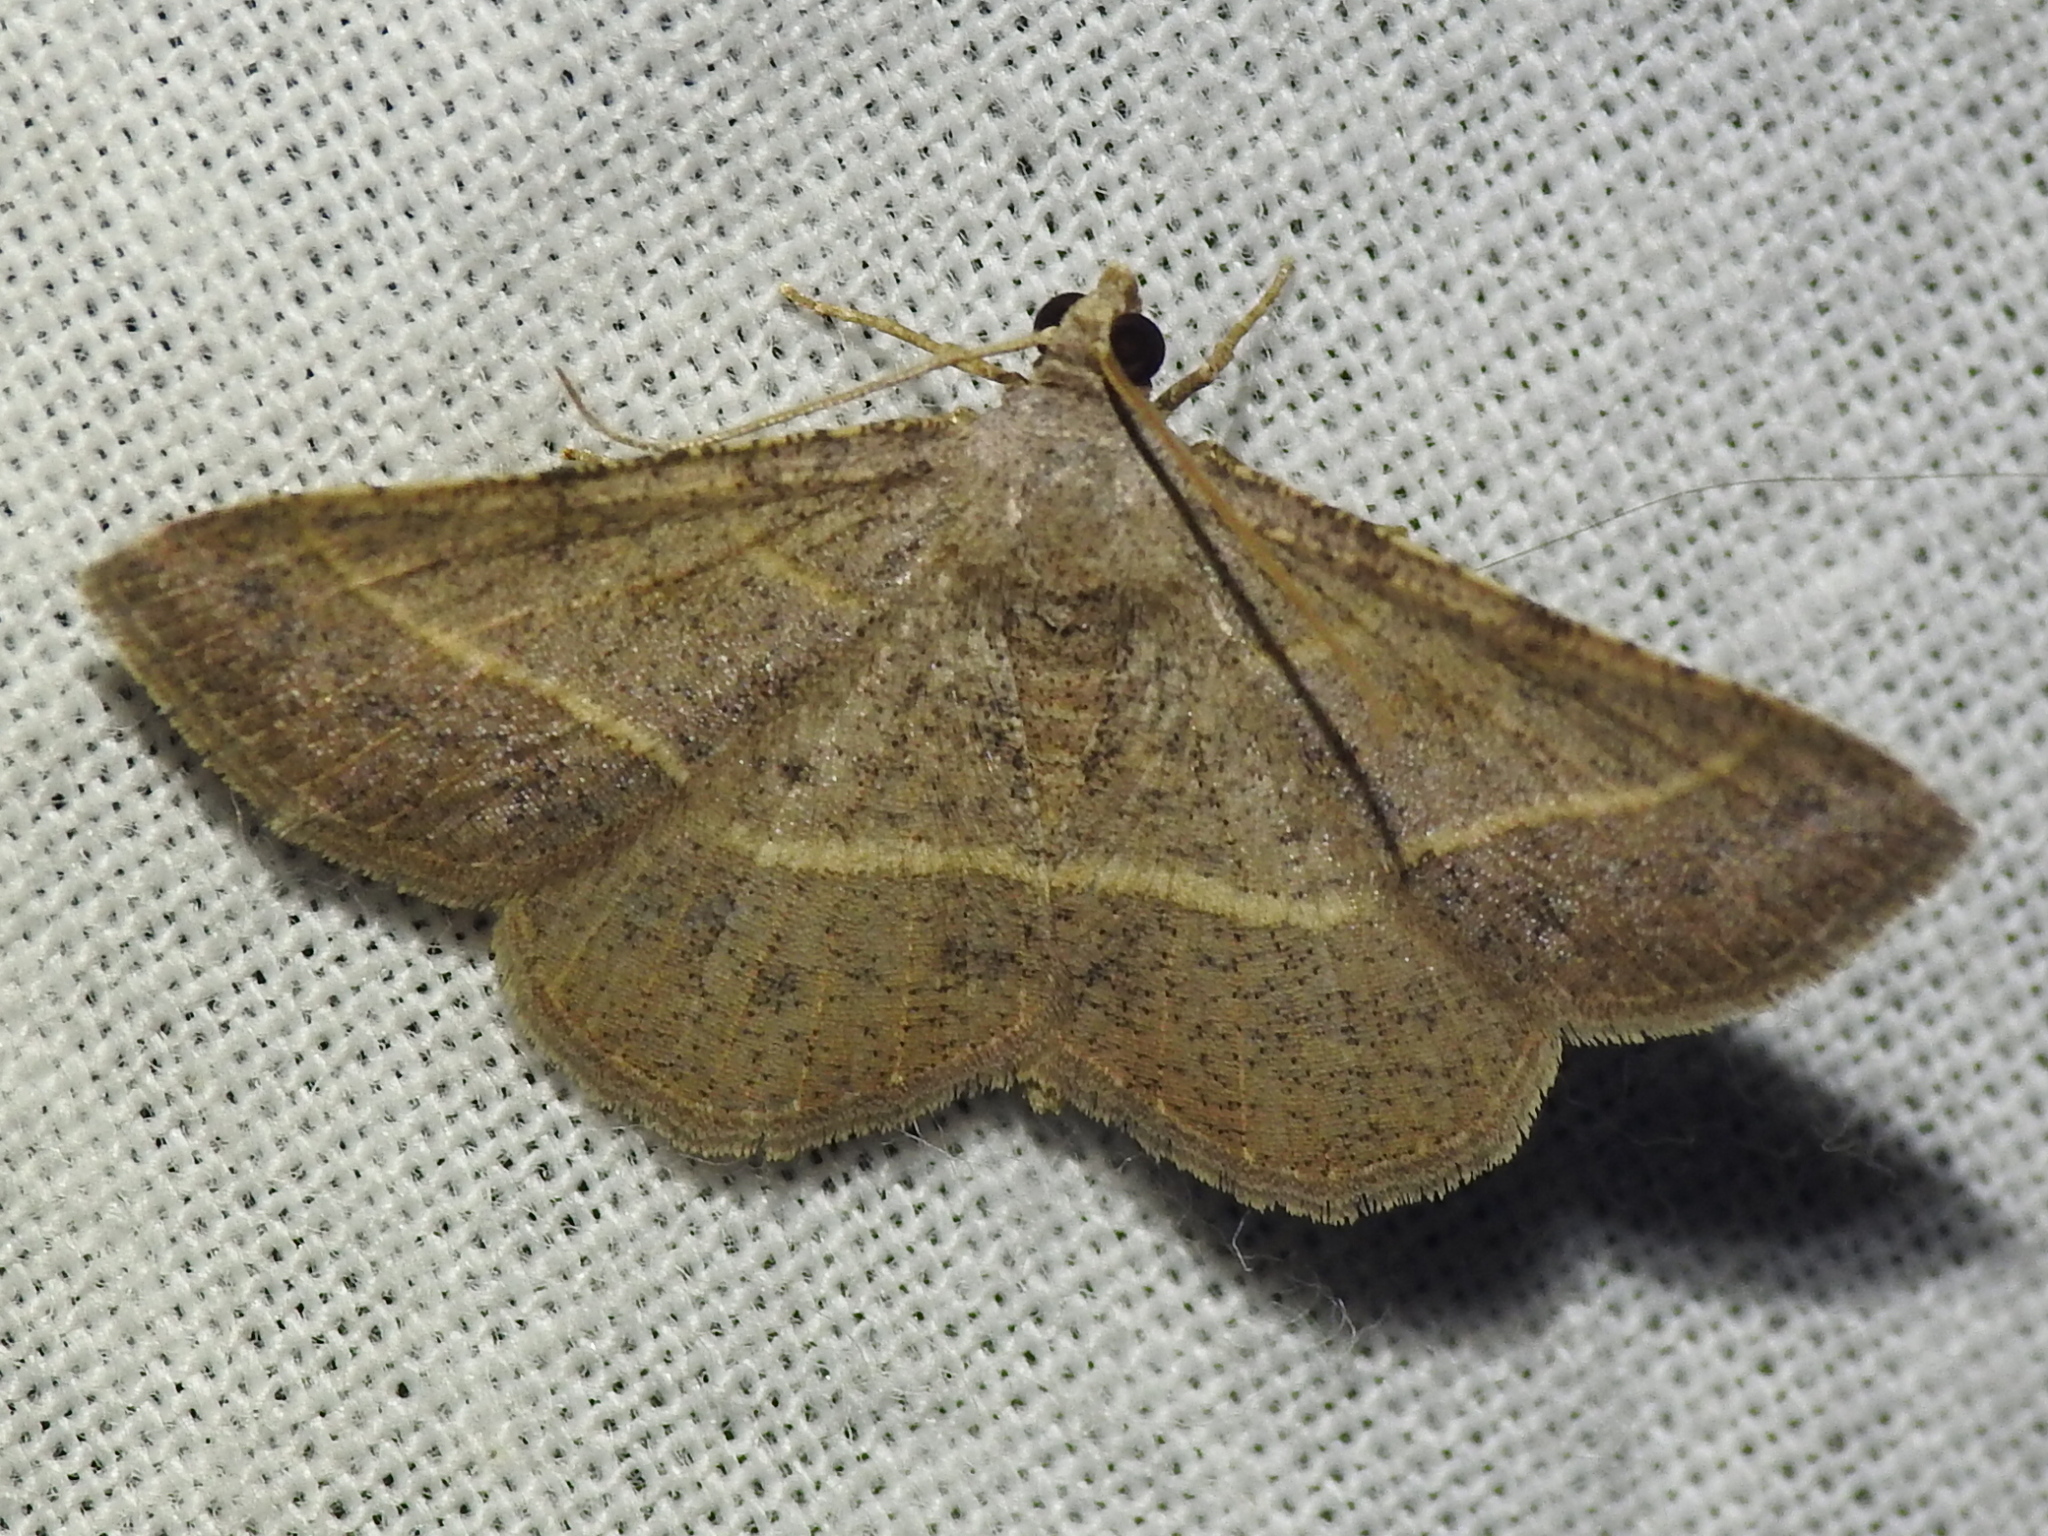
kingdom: Animalia
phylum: Arthropoda
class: Insecta
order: Lepidoptera
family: Geometridae
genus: Digrammia
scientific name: Digrammia irrorata
